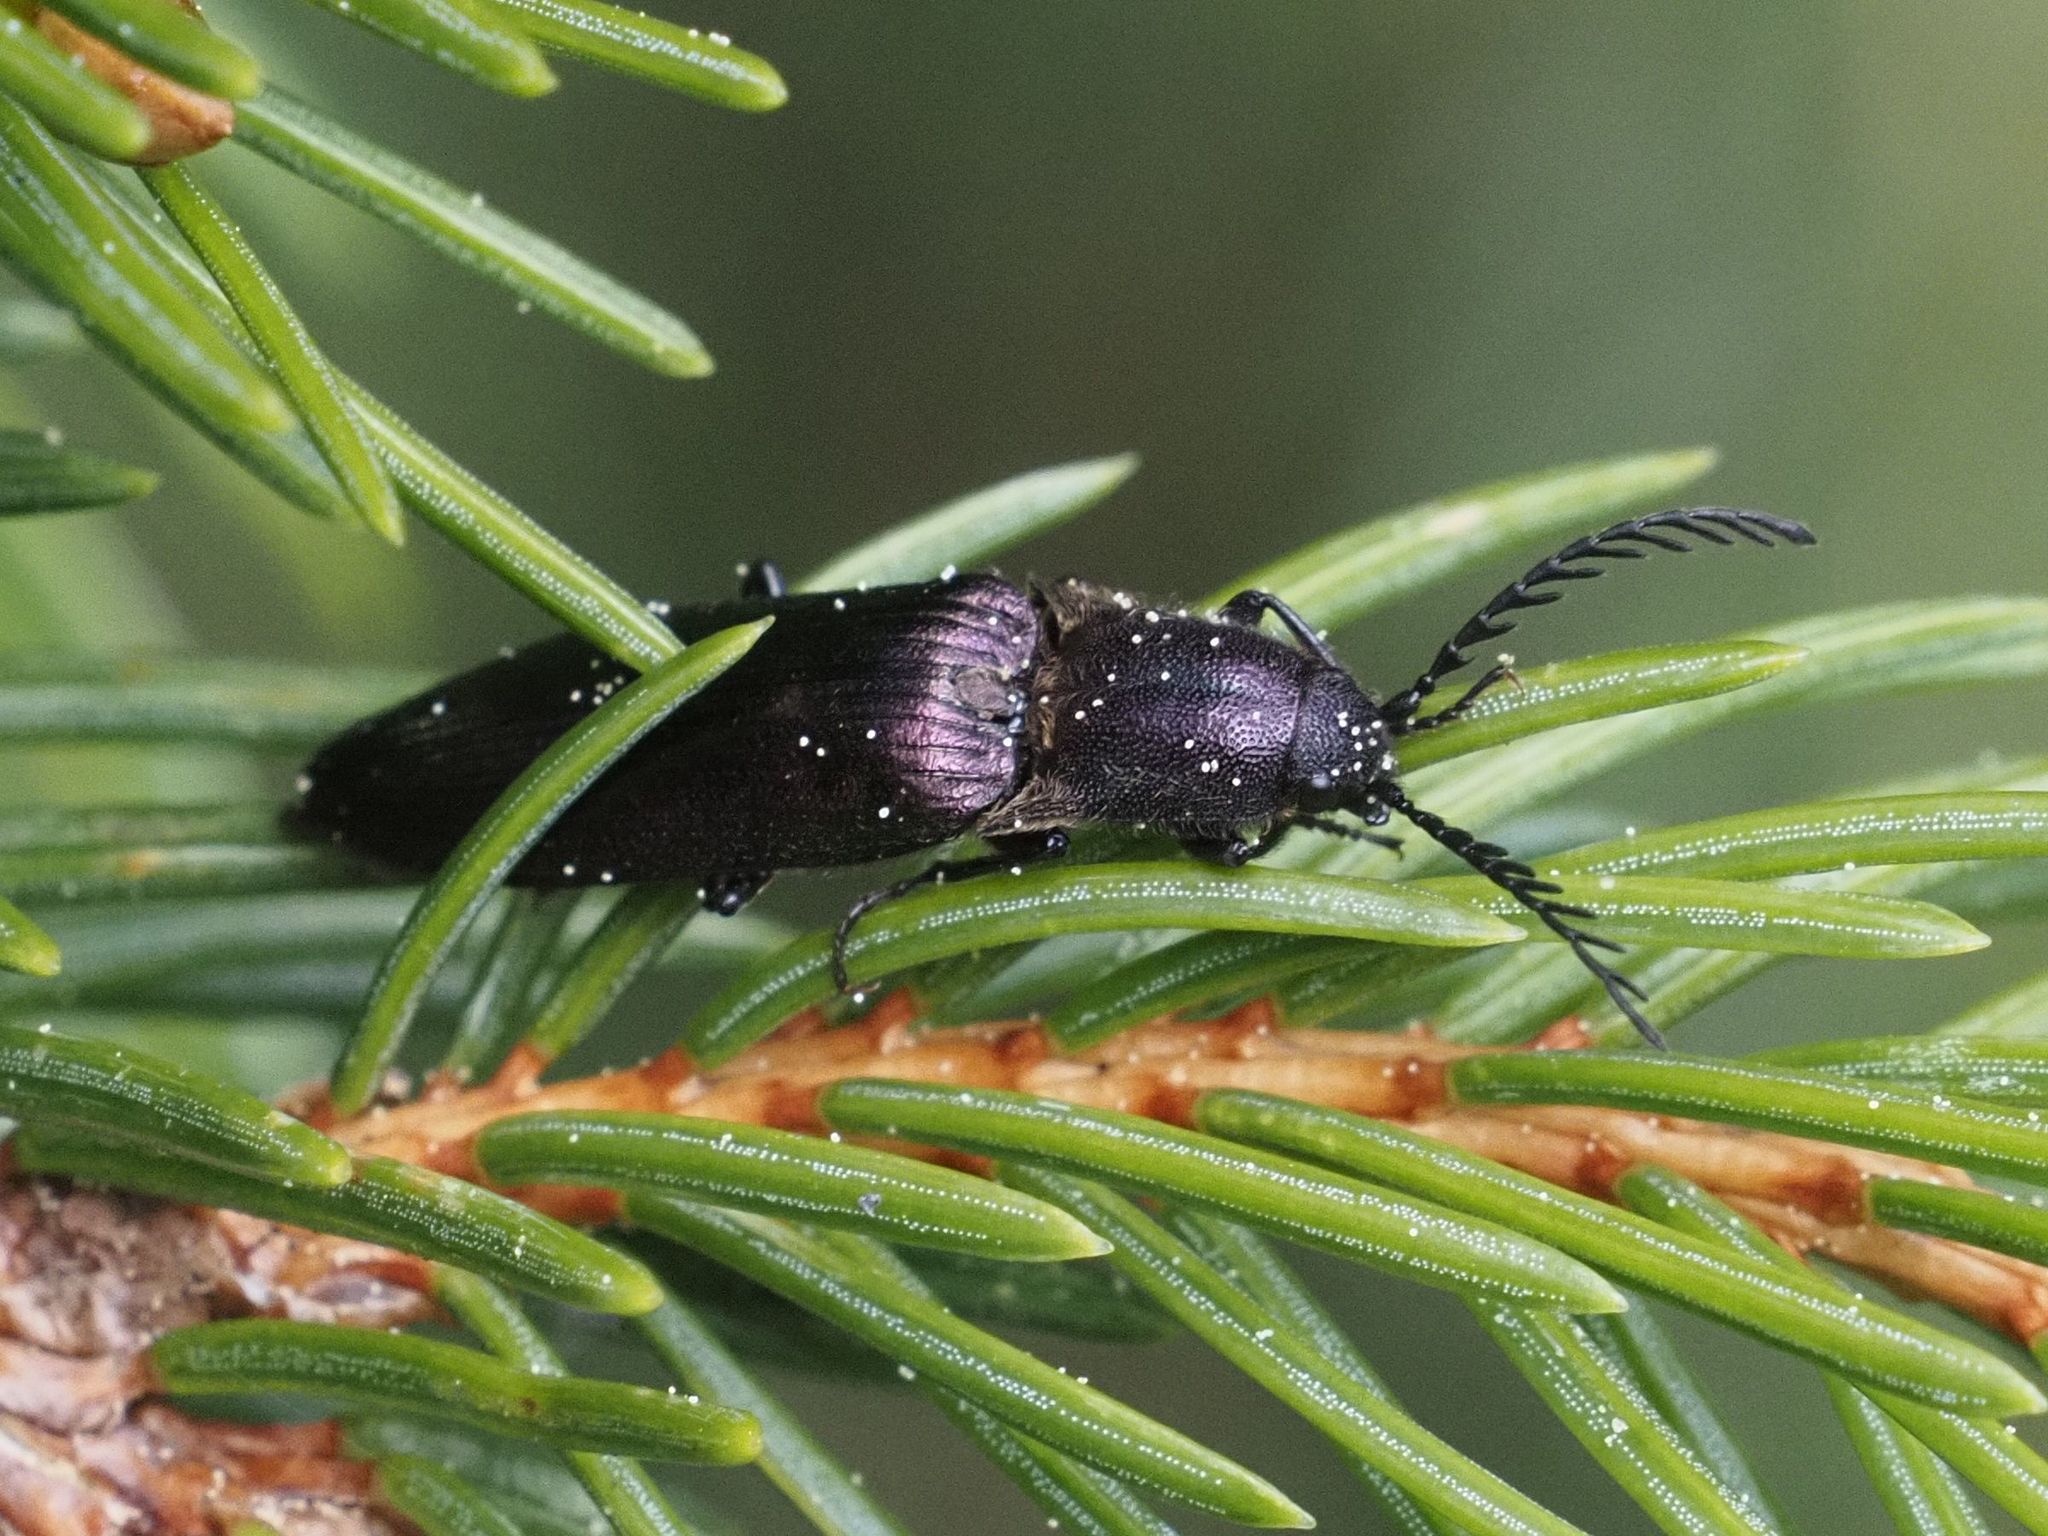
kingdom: Animalia
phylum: Arthropoda
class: Insecta
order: Coleoptera
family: Elateridae
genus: Ctenicera
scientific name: Ctenicera cuprea
